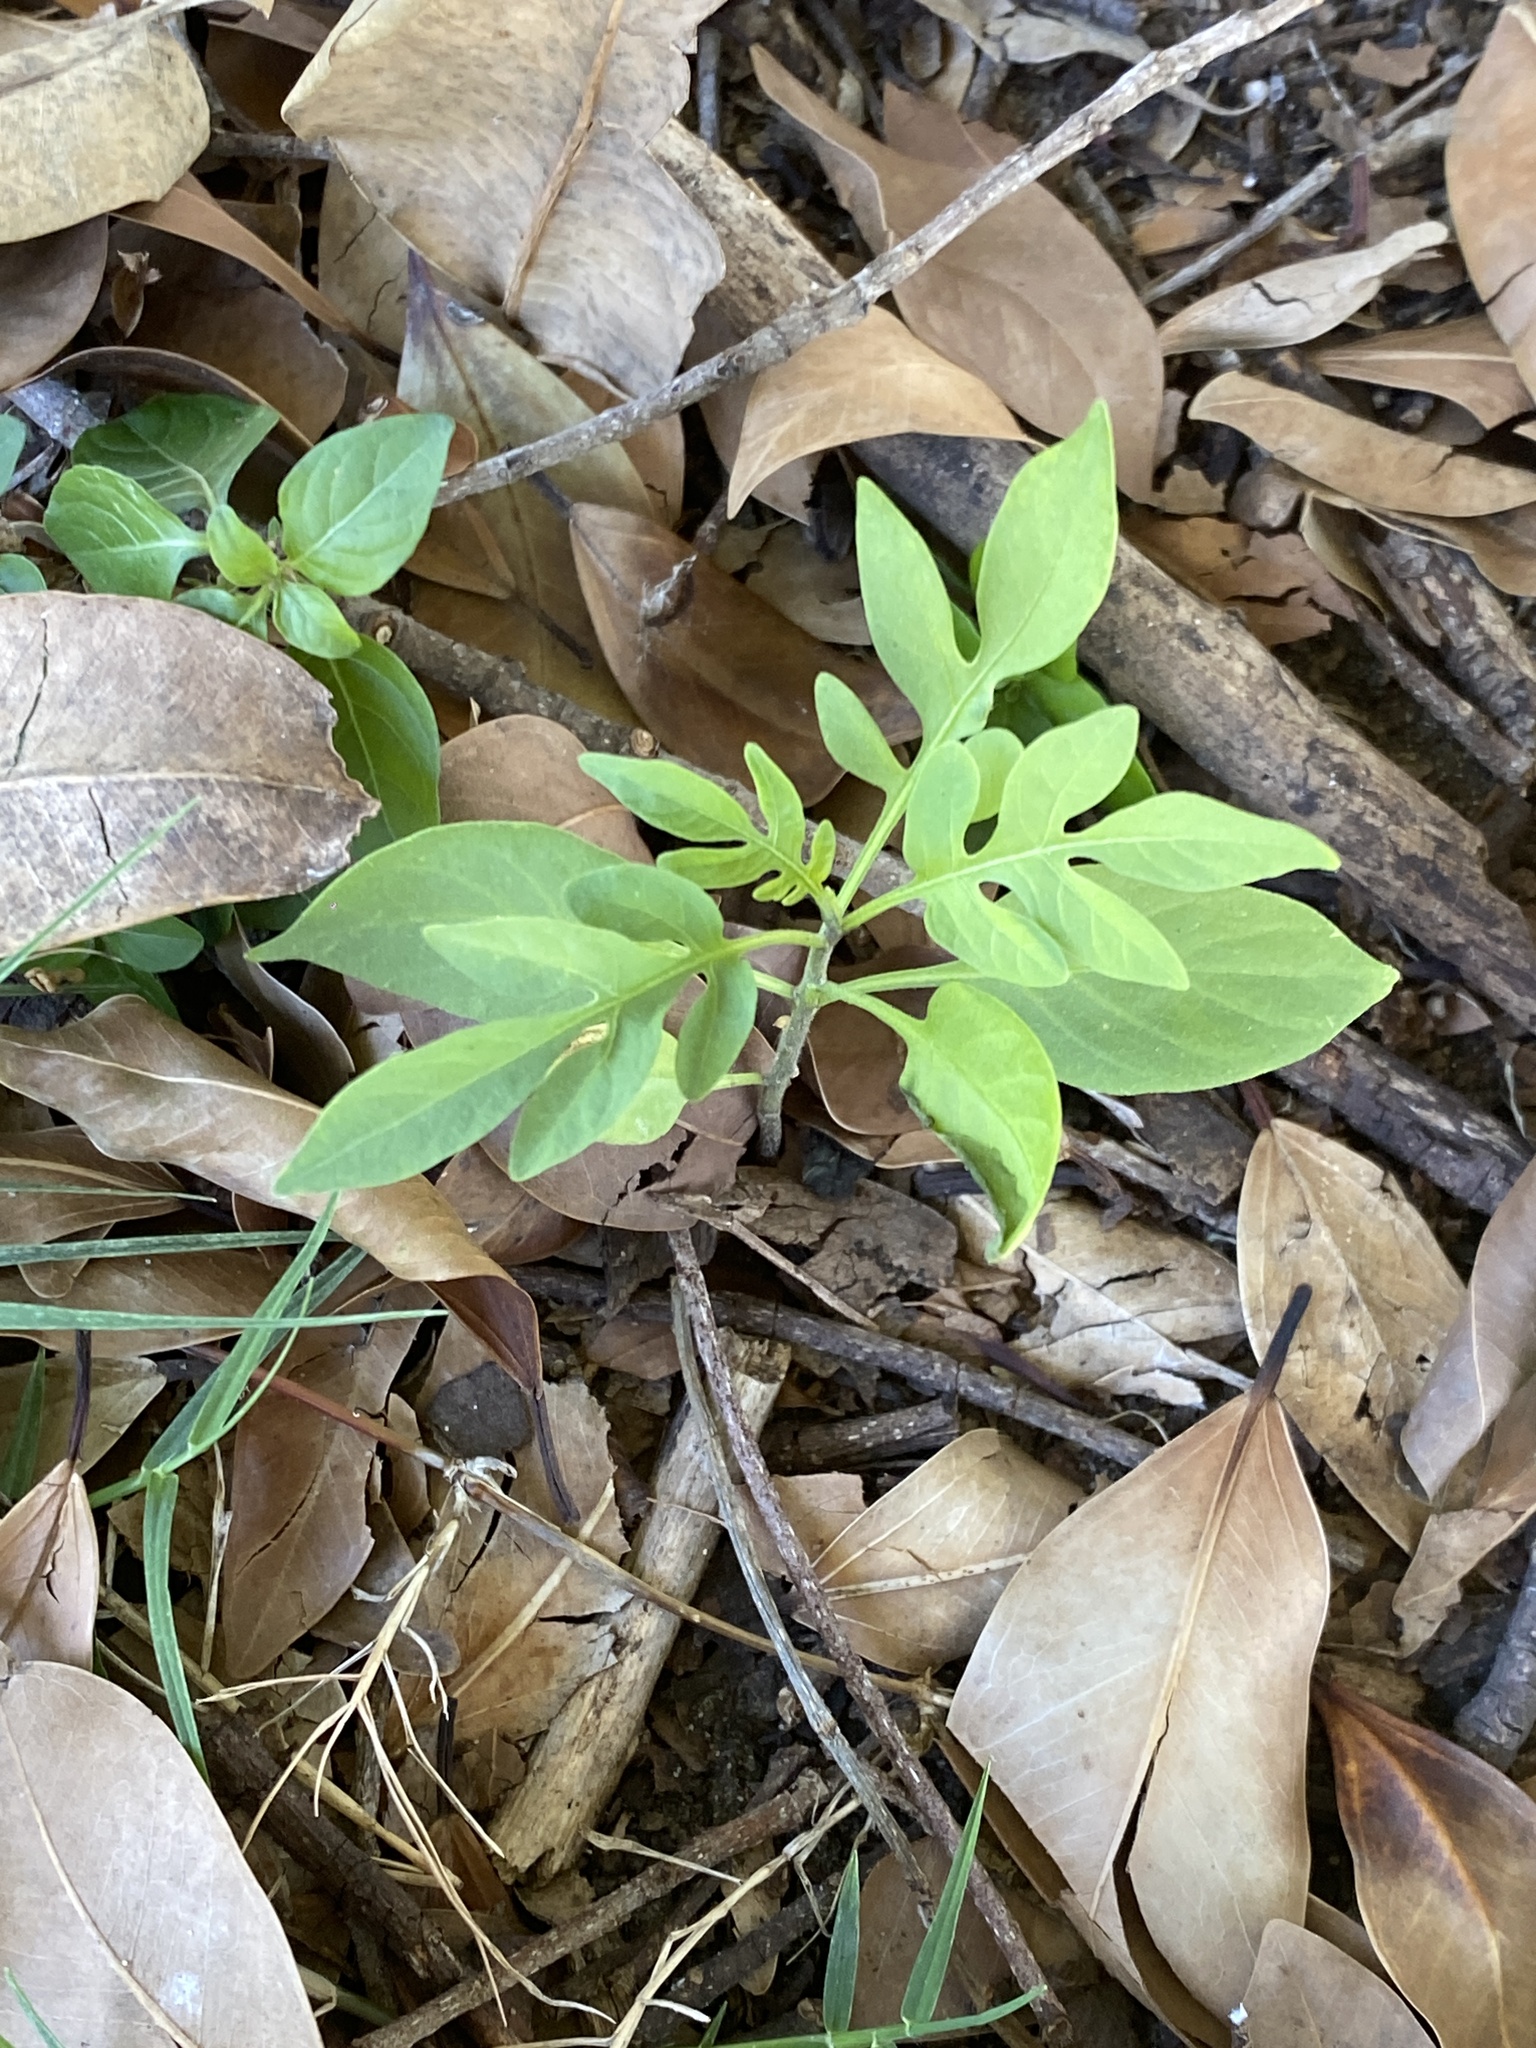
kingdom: Plantae
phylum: Tracheophyta
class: Magnoliopsida
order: Solanales
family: Solanaceae
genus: Solanum
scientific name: Solanum seaforthianum
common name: Brazilian nightshade
